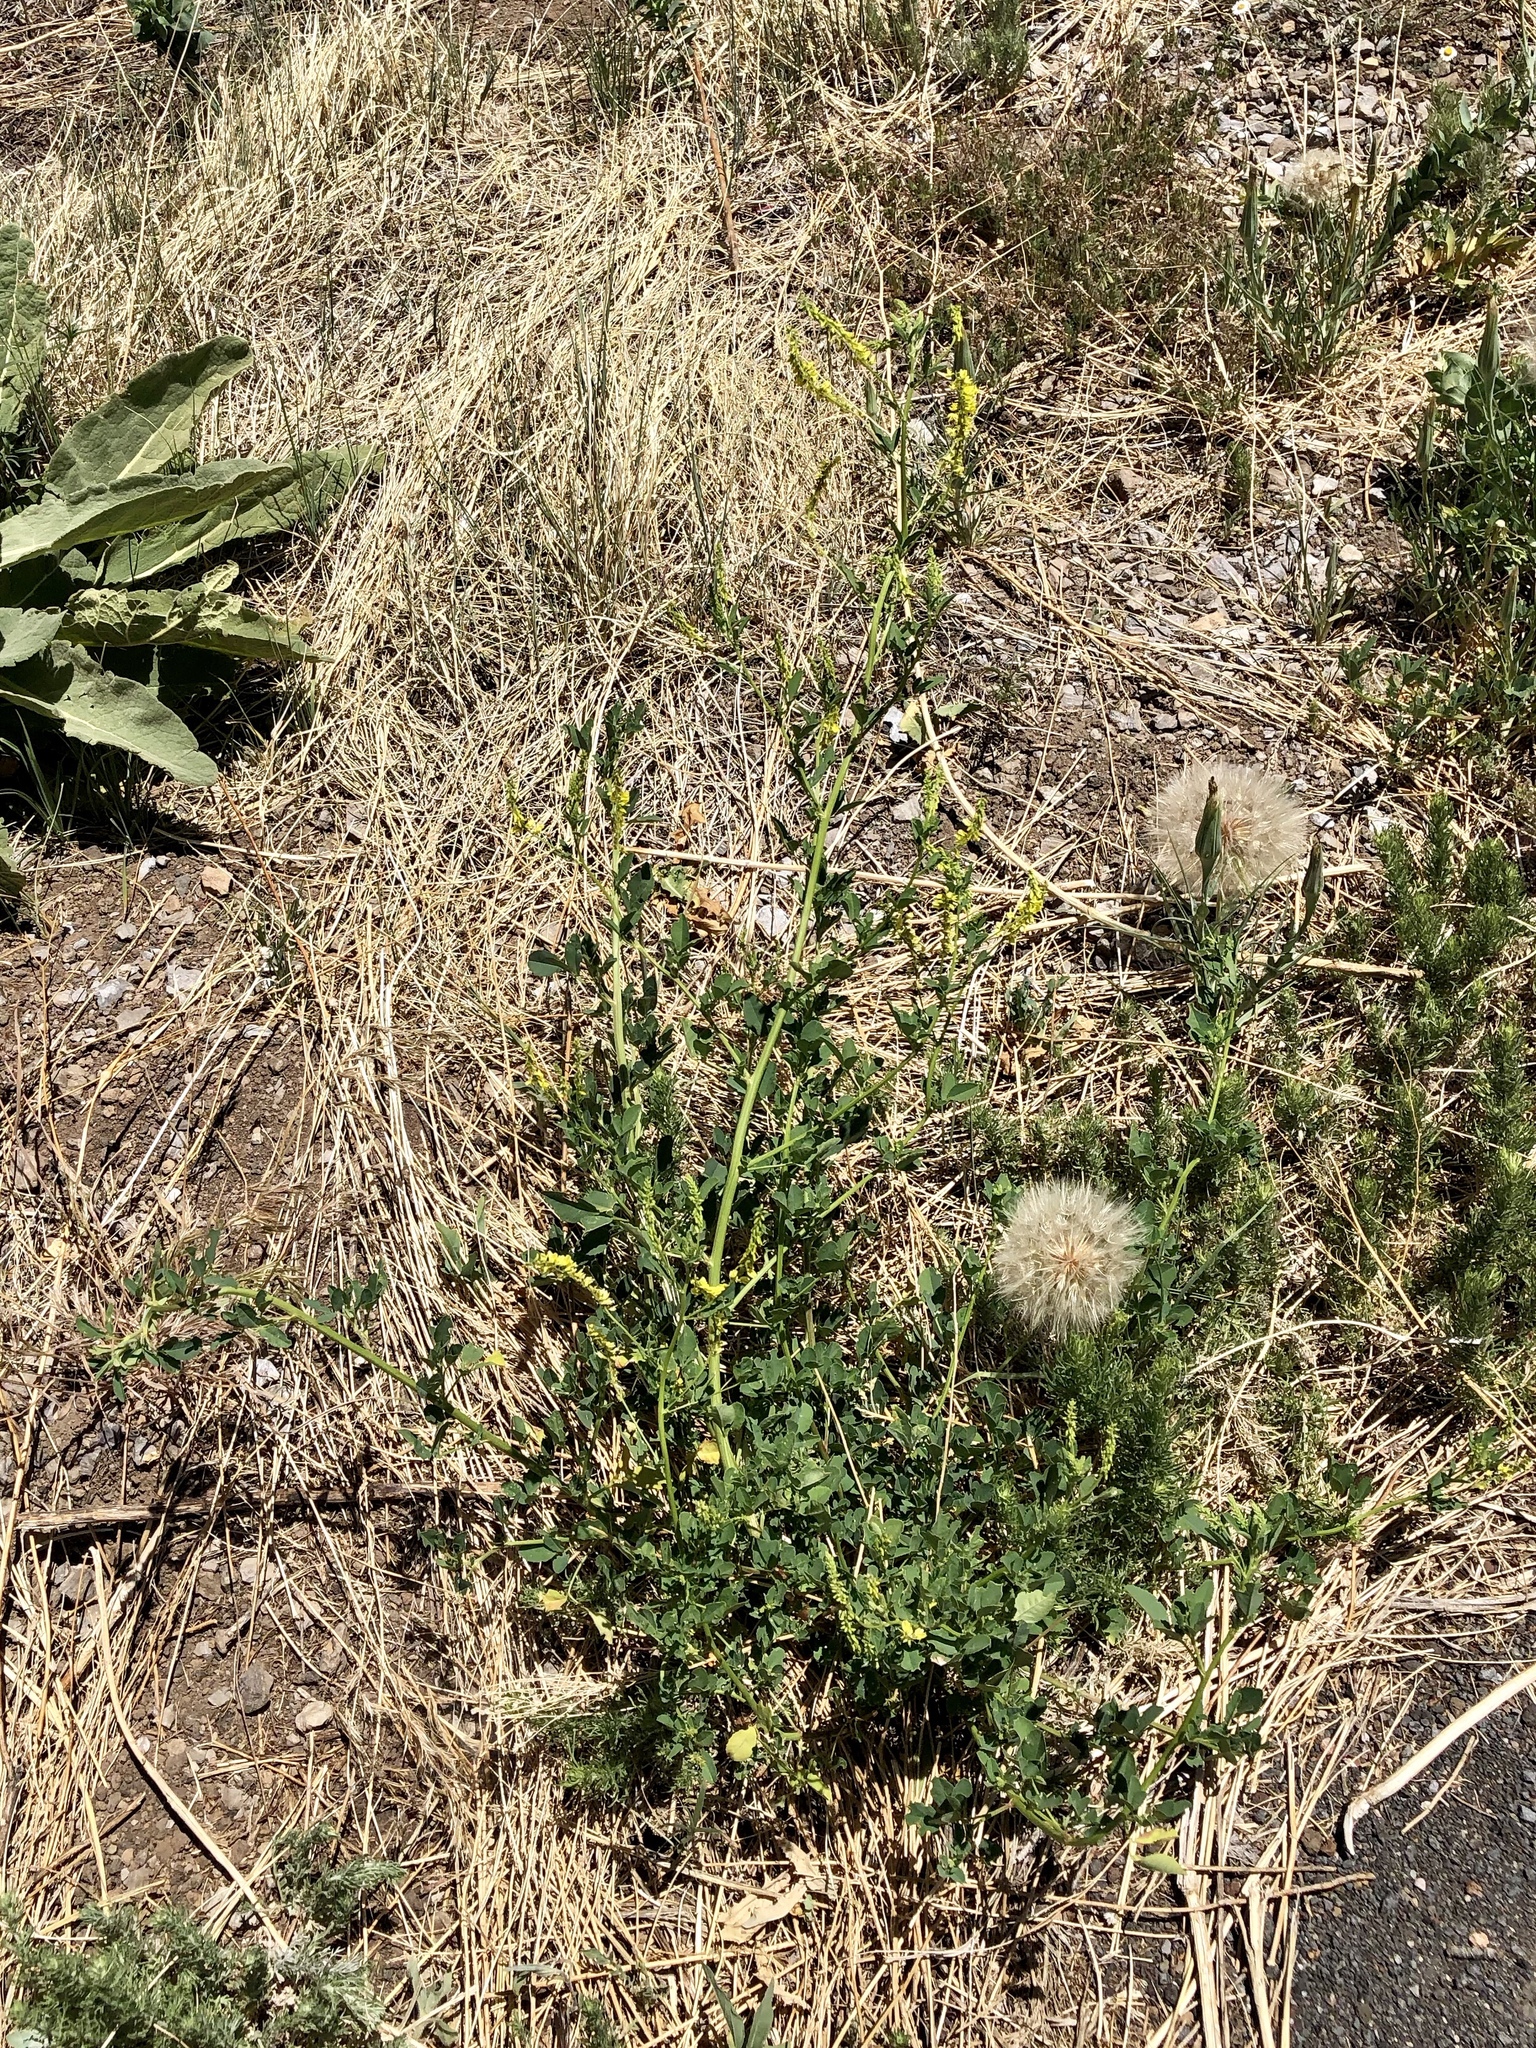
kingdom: Plantae
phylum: Tracheophyta
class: Magnoliopsida
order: Fabales
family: Fabaceae
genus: Melilotus
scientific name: Melilotus officinalis
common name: Sweetclover
